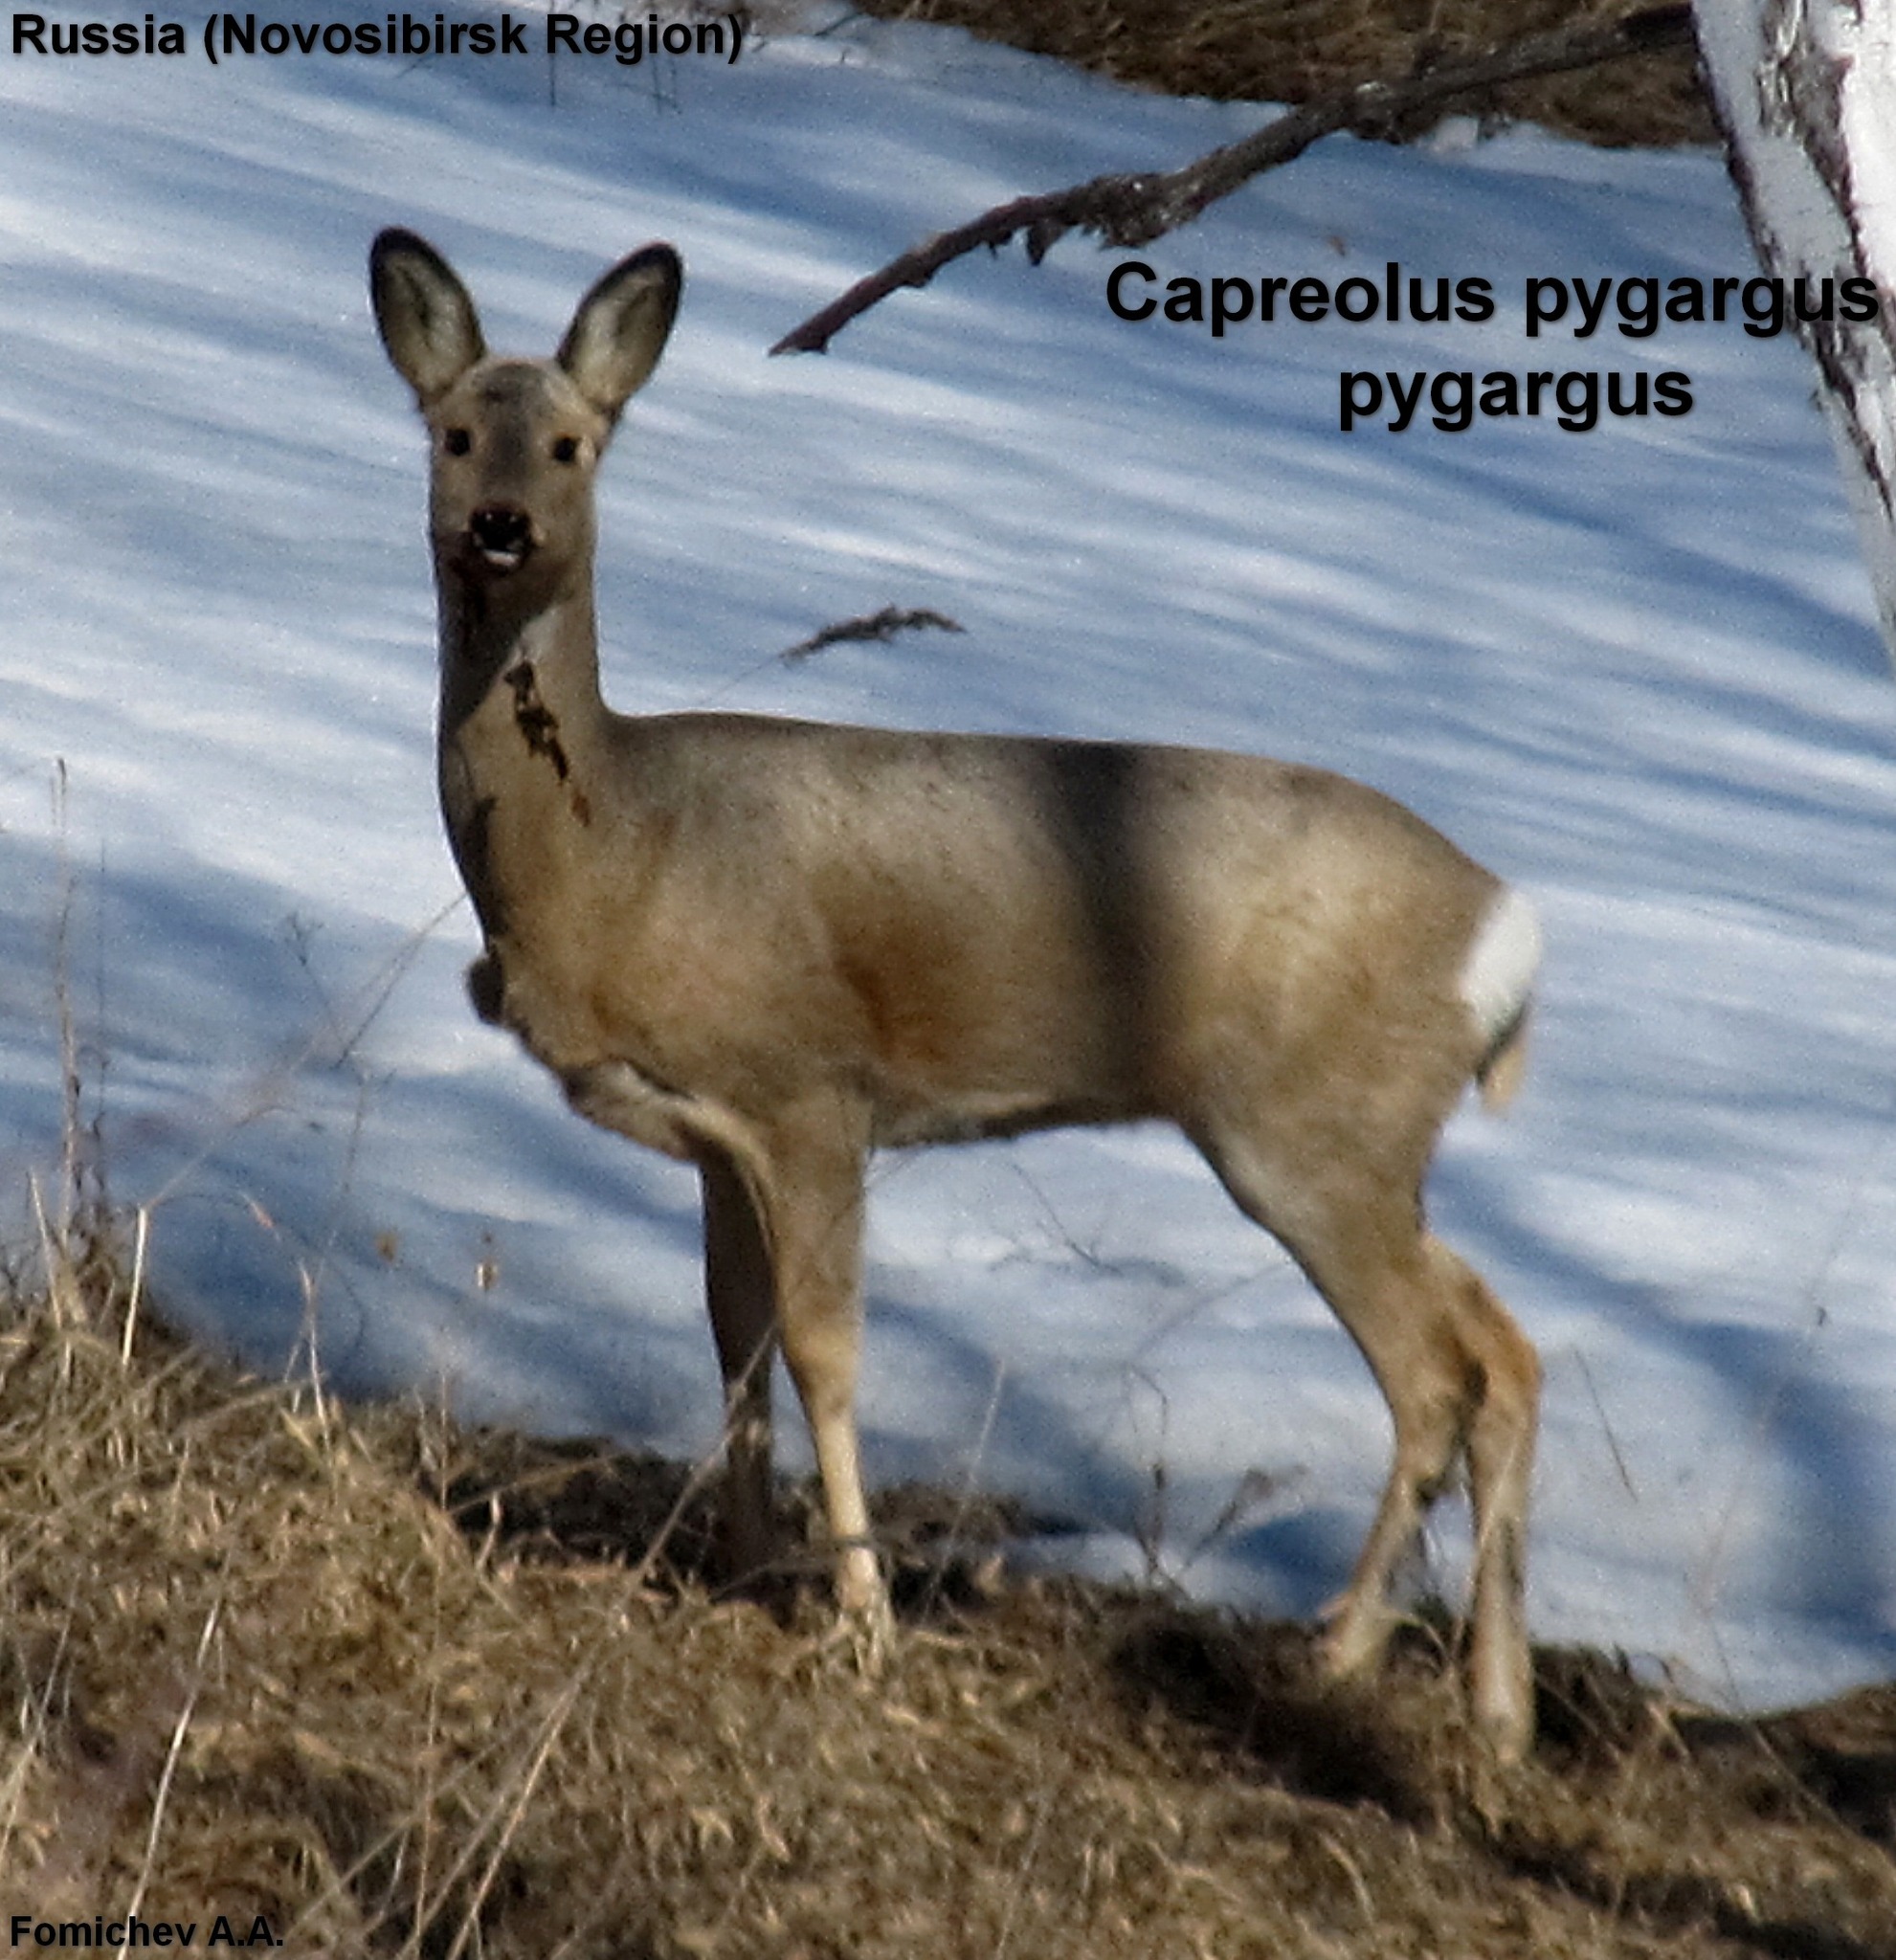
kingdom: Animalia
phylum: Chordata
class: Mammalia
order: Artiodactyla
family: Cervidae
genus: Capreolus
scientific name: Capreolus pygargus
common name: Siberian roe
